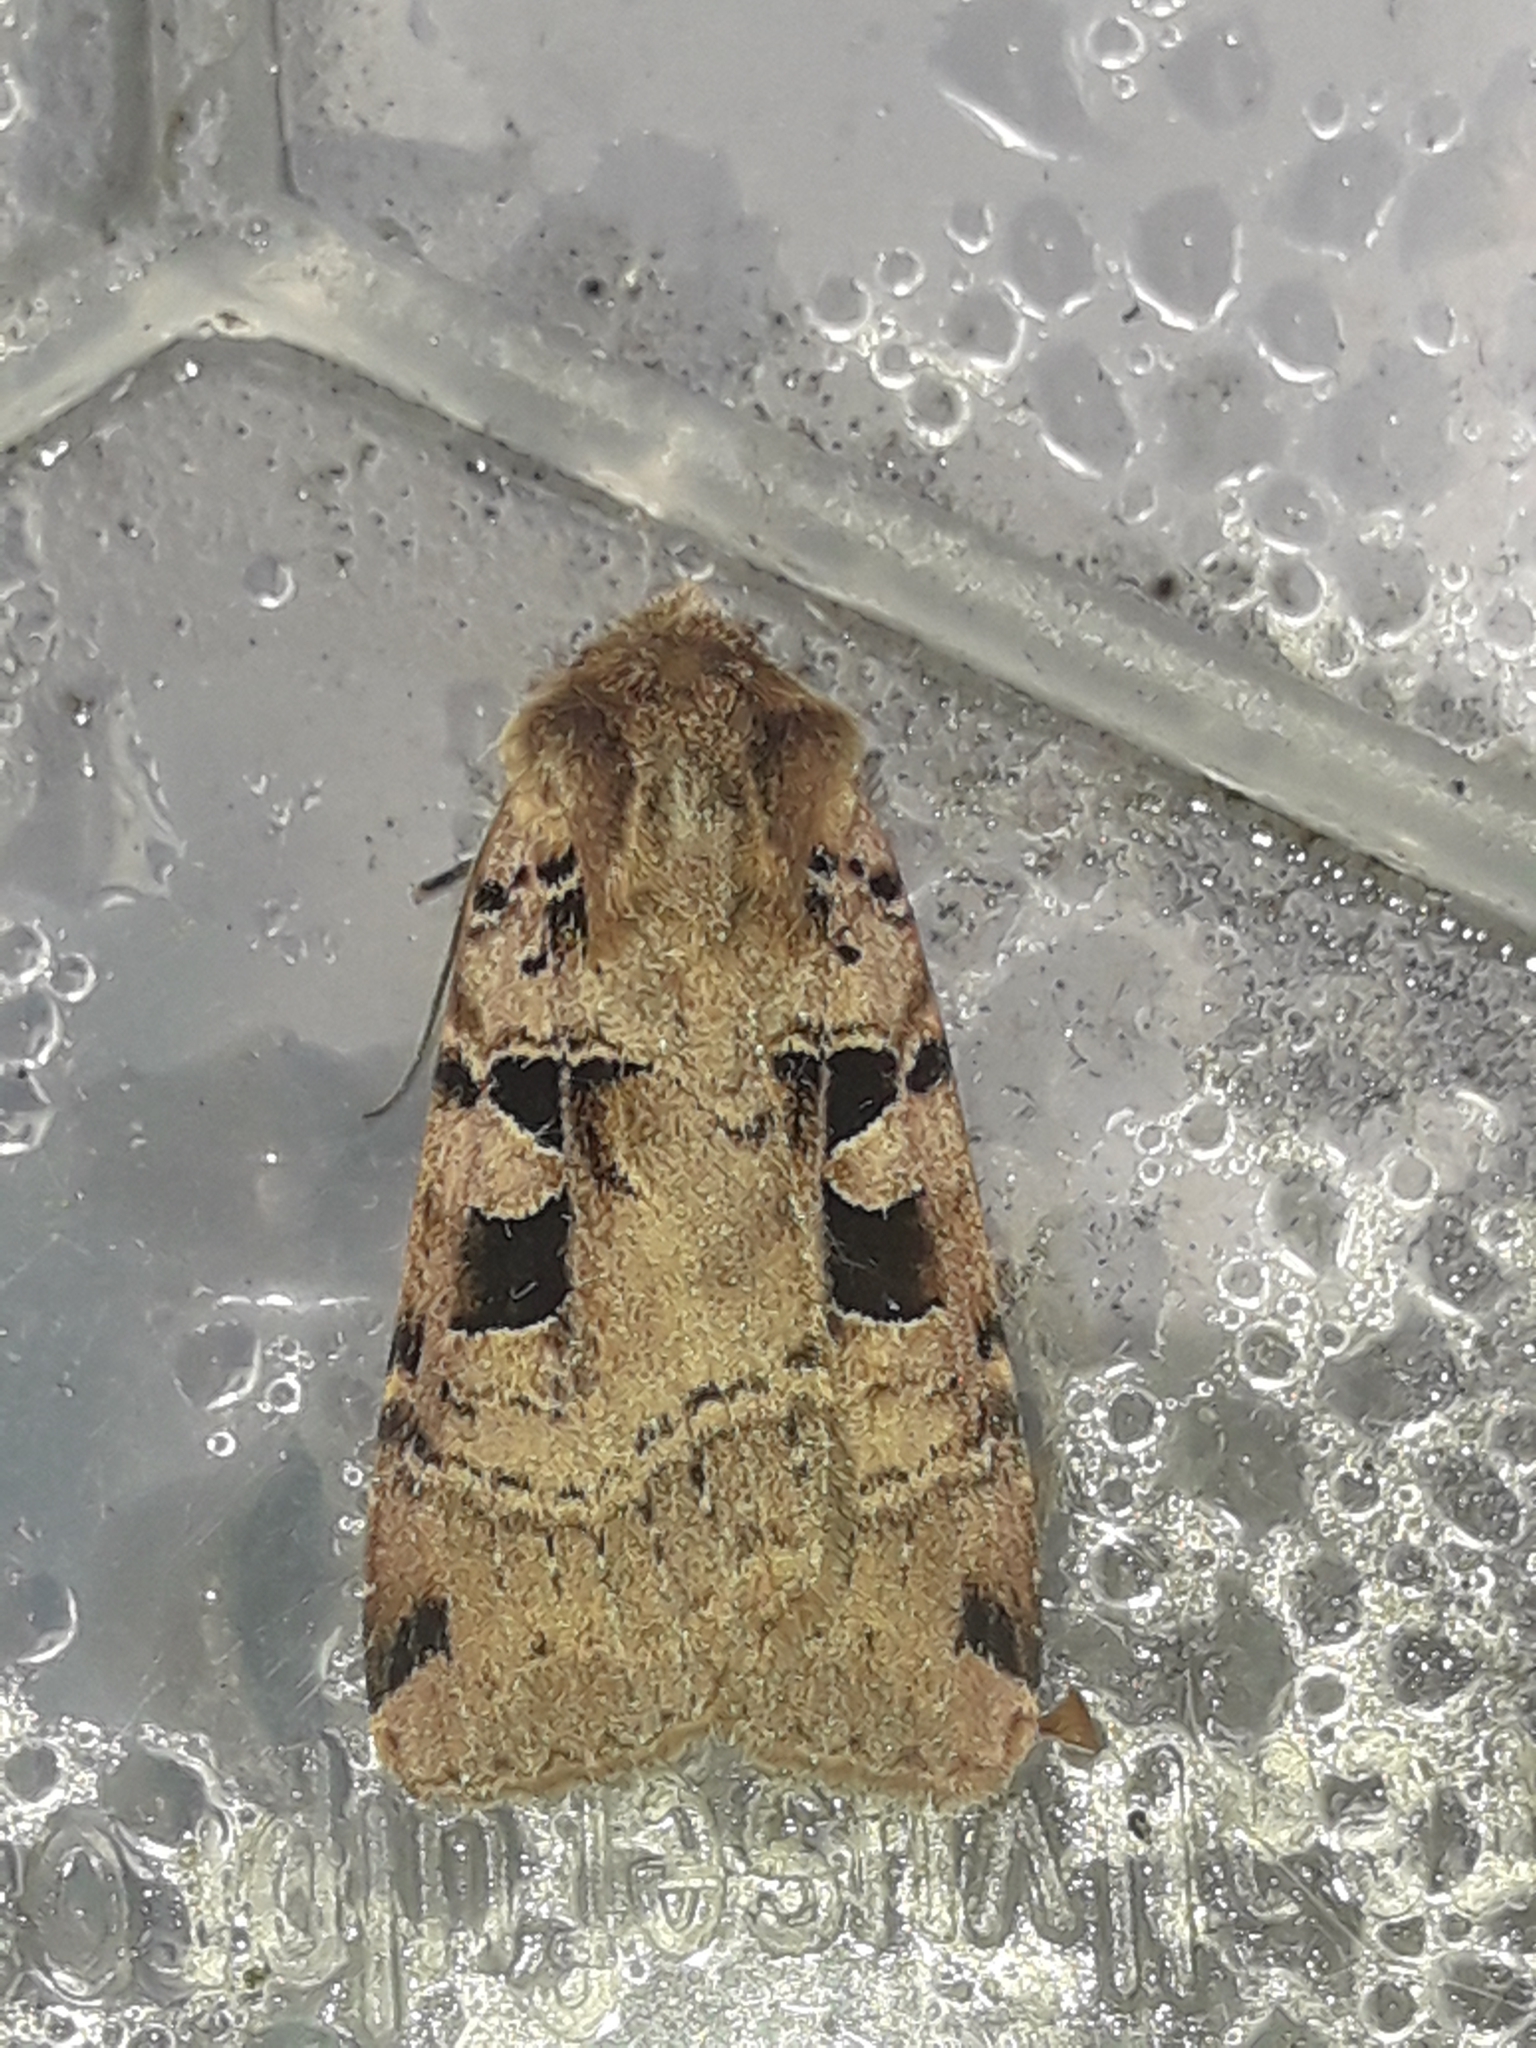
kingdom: Animalia
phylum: Arthropoda
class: Insecta
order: Lepidoptera
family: Noctuidae
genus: Xestia
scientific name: Xestia triangulum
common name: Double square-spot
